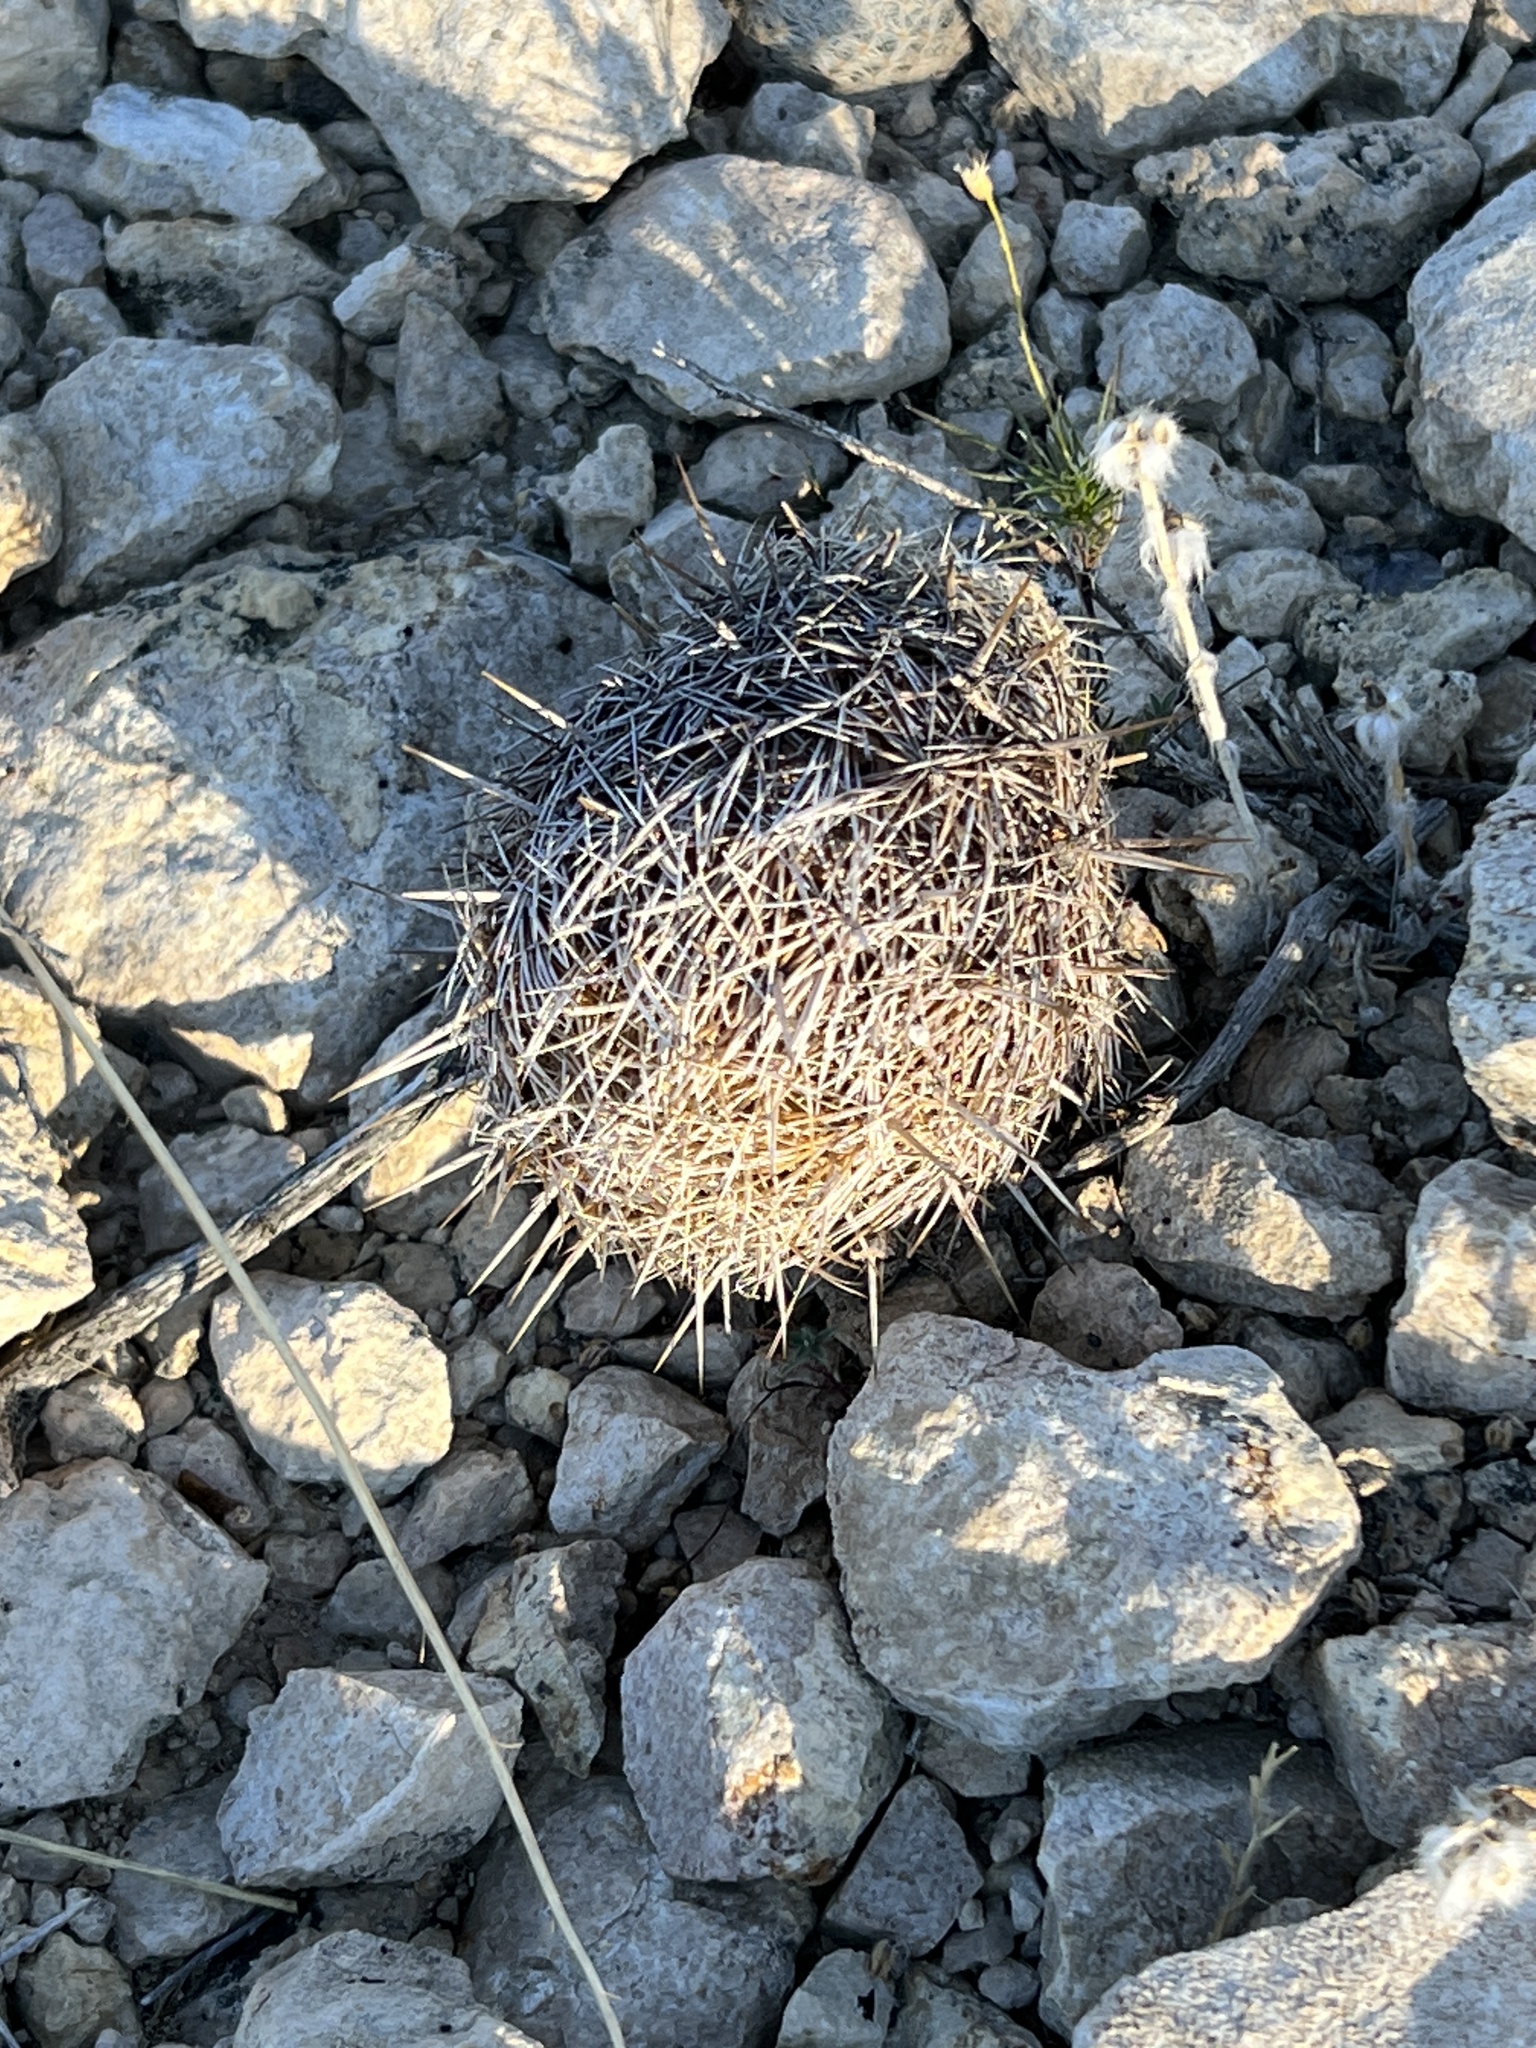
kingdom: Plantae
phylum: Tracheophyta
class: Magnoliopsida
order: Caryophyllales
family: Cactaceae
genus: Coryphantha
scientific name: Coryphantha echinus
